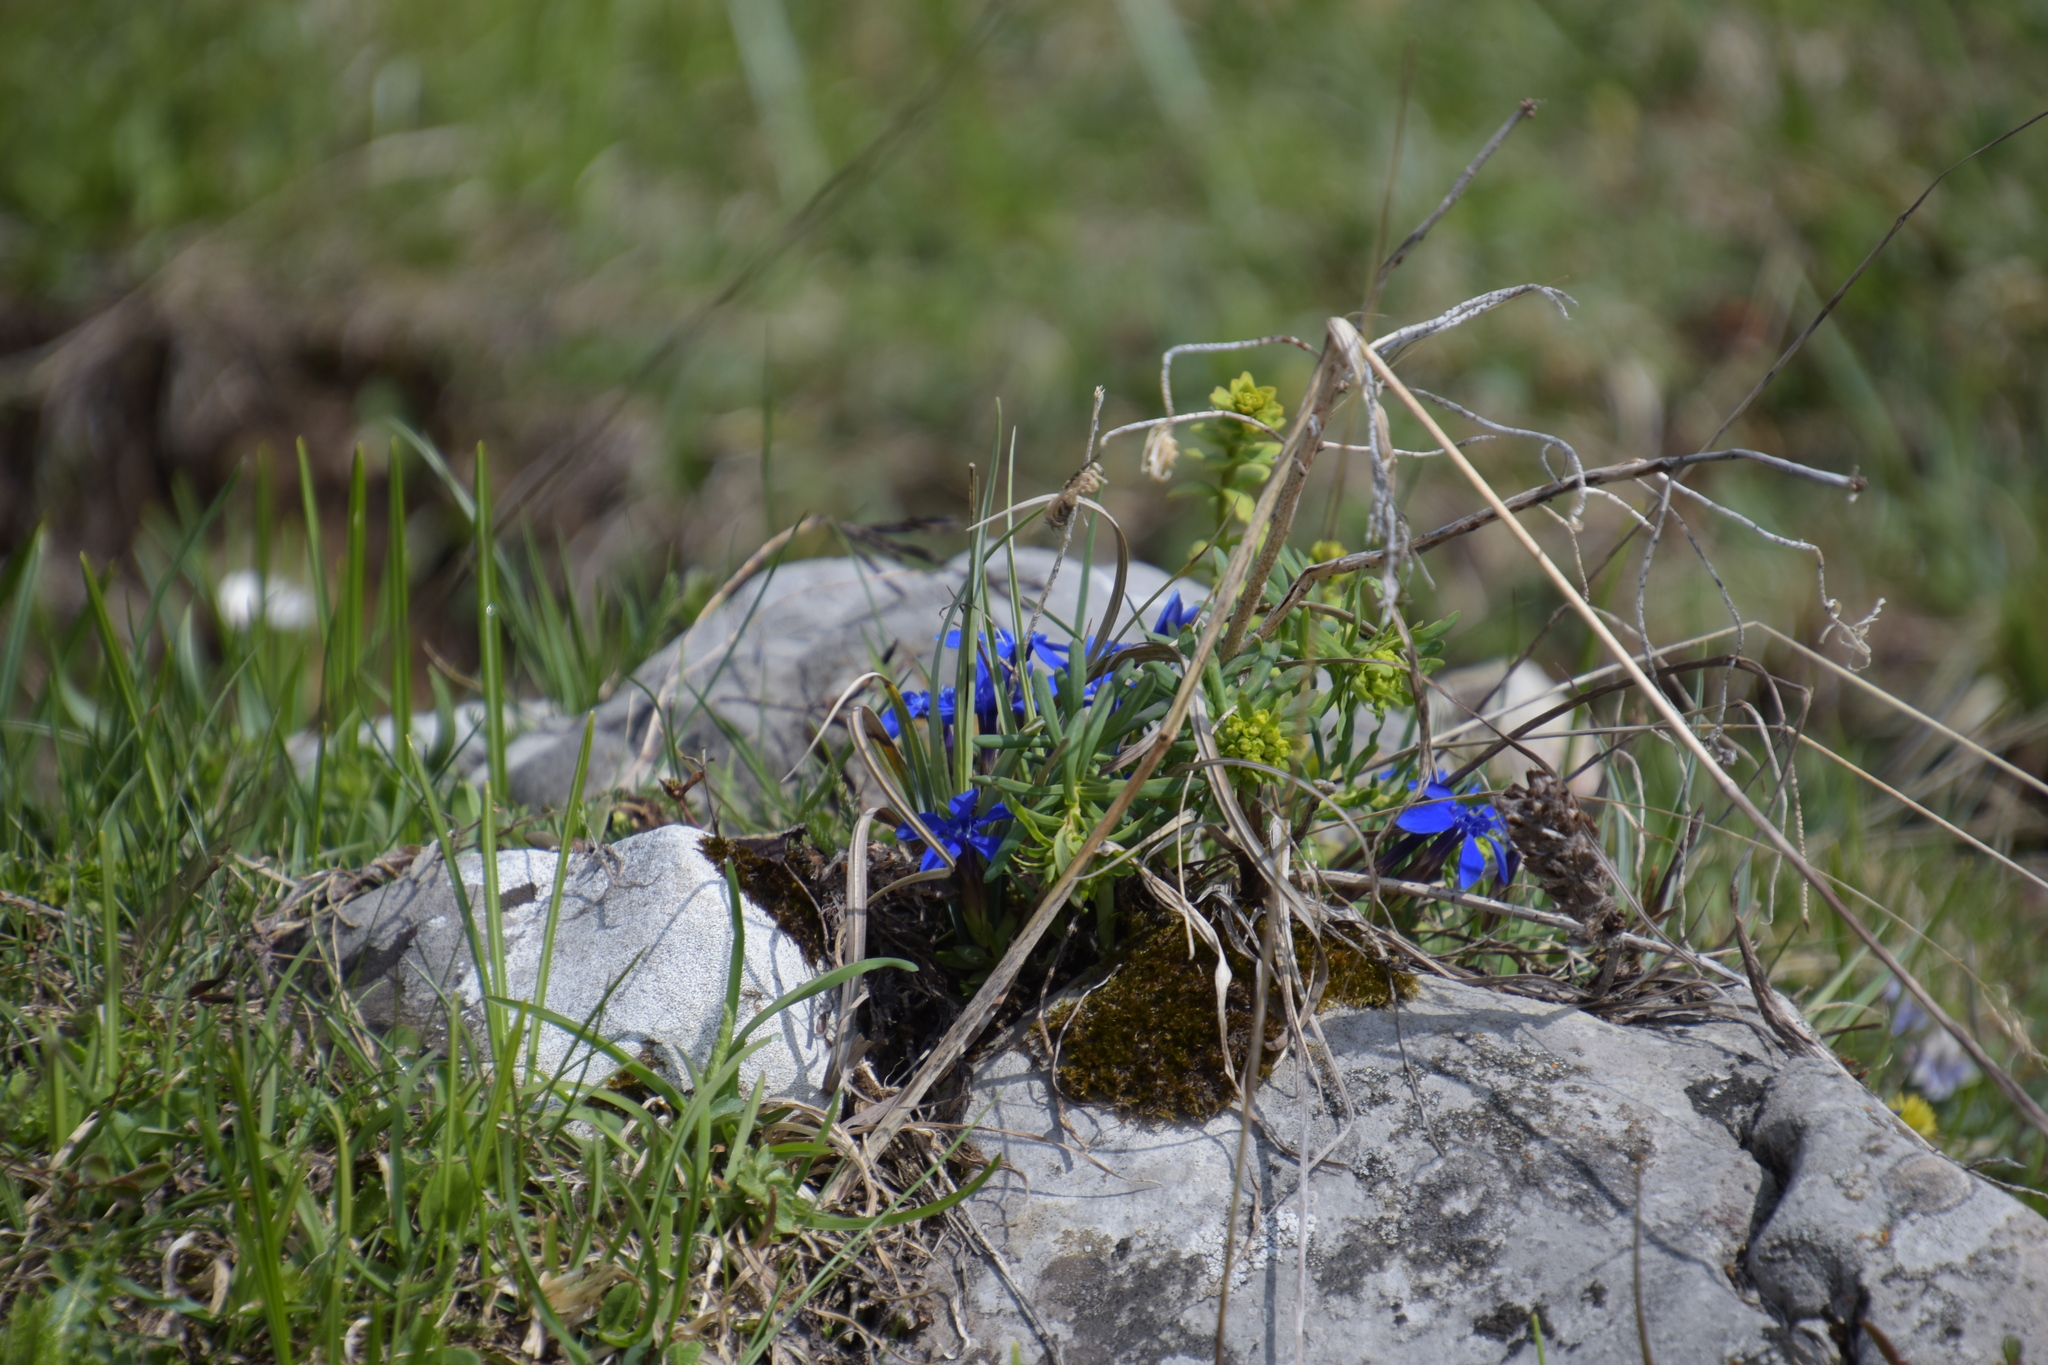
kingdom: Plantae
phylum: Tracheophyta
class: Magnoliopsida
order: Gentianales
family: Gentianaceae
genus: Gentiana
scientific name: Gentiana verna
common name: Spring gentian
